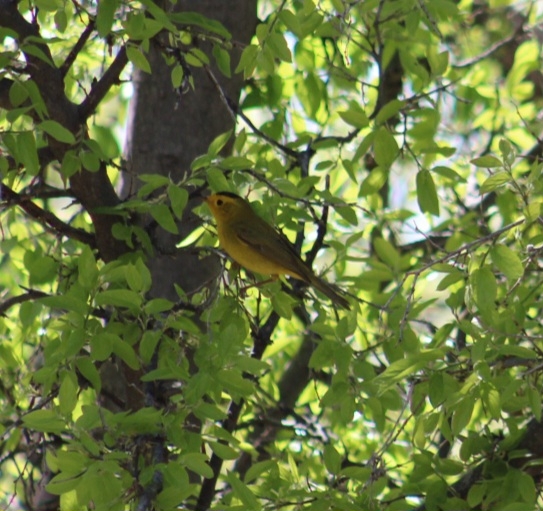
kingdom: Animalia
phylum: Chordata
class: Aves
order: Passeriformes
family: Parulidae
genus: Cardellina
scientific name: Cardellina pusilla
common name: Wilson's warbler
